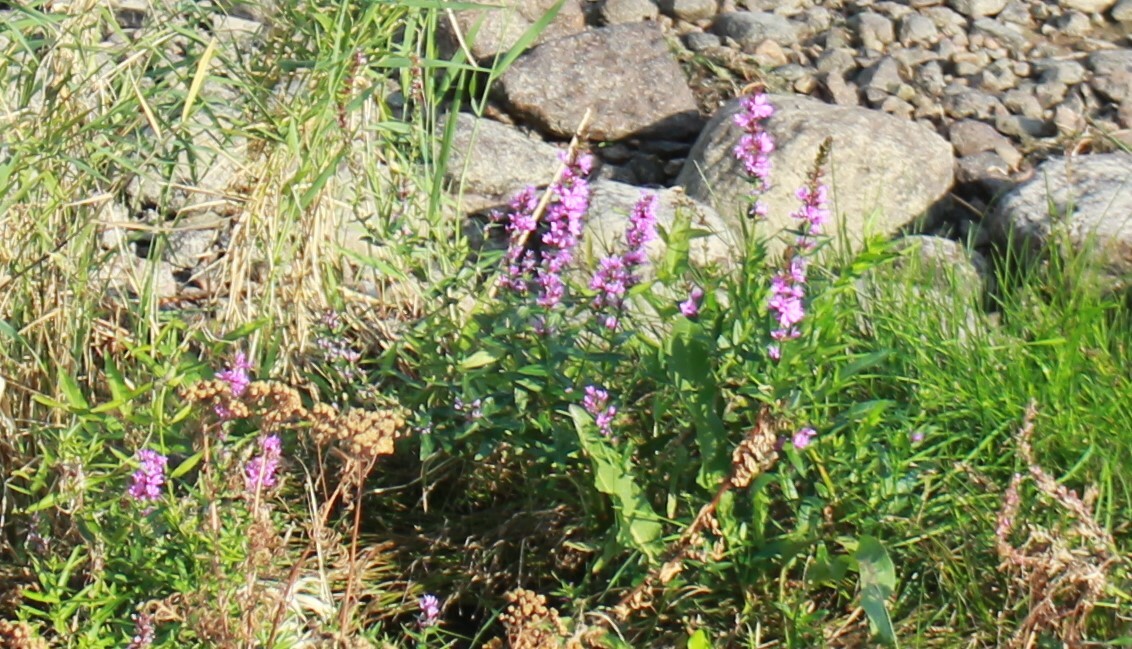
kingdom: Plantae
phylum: Tracheophyta
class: Magnoliopsida
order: Lamiales
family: Lamiaceae
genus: Stachys
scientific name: Stachys palustris
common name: Marsh woundwort
